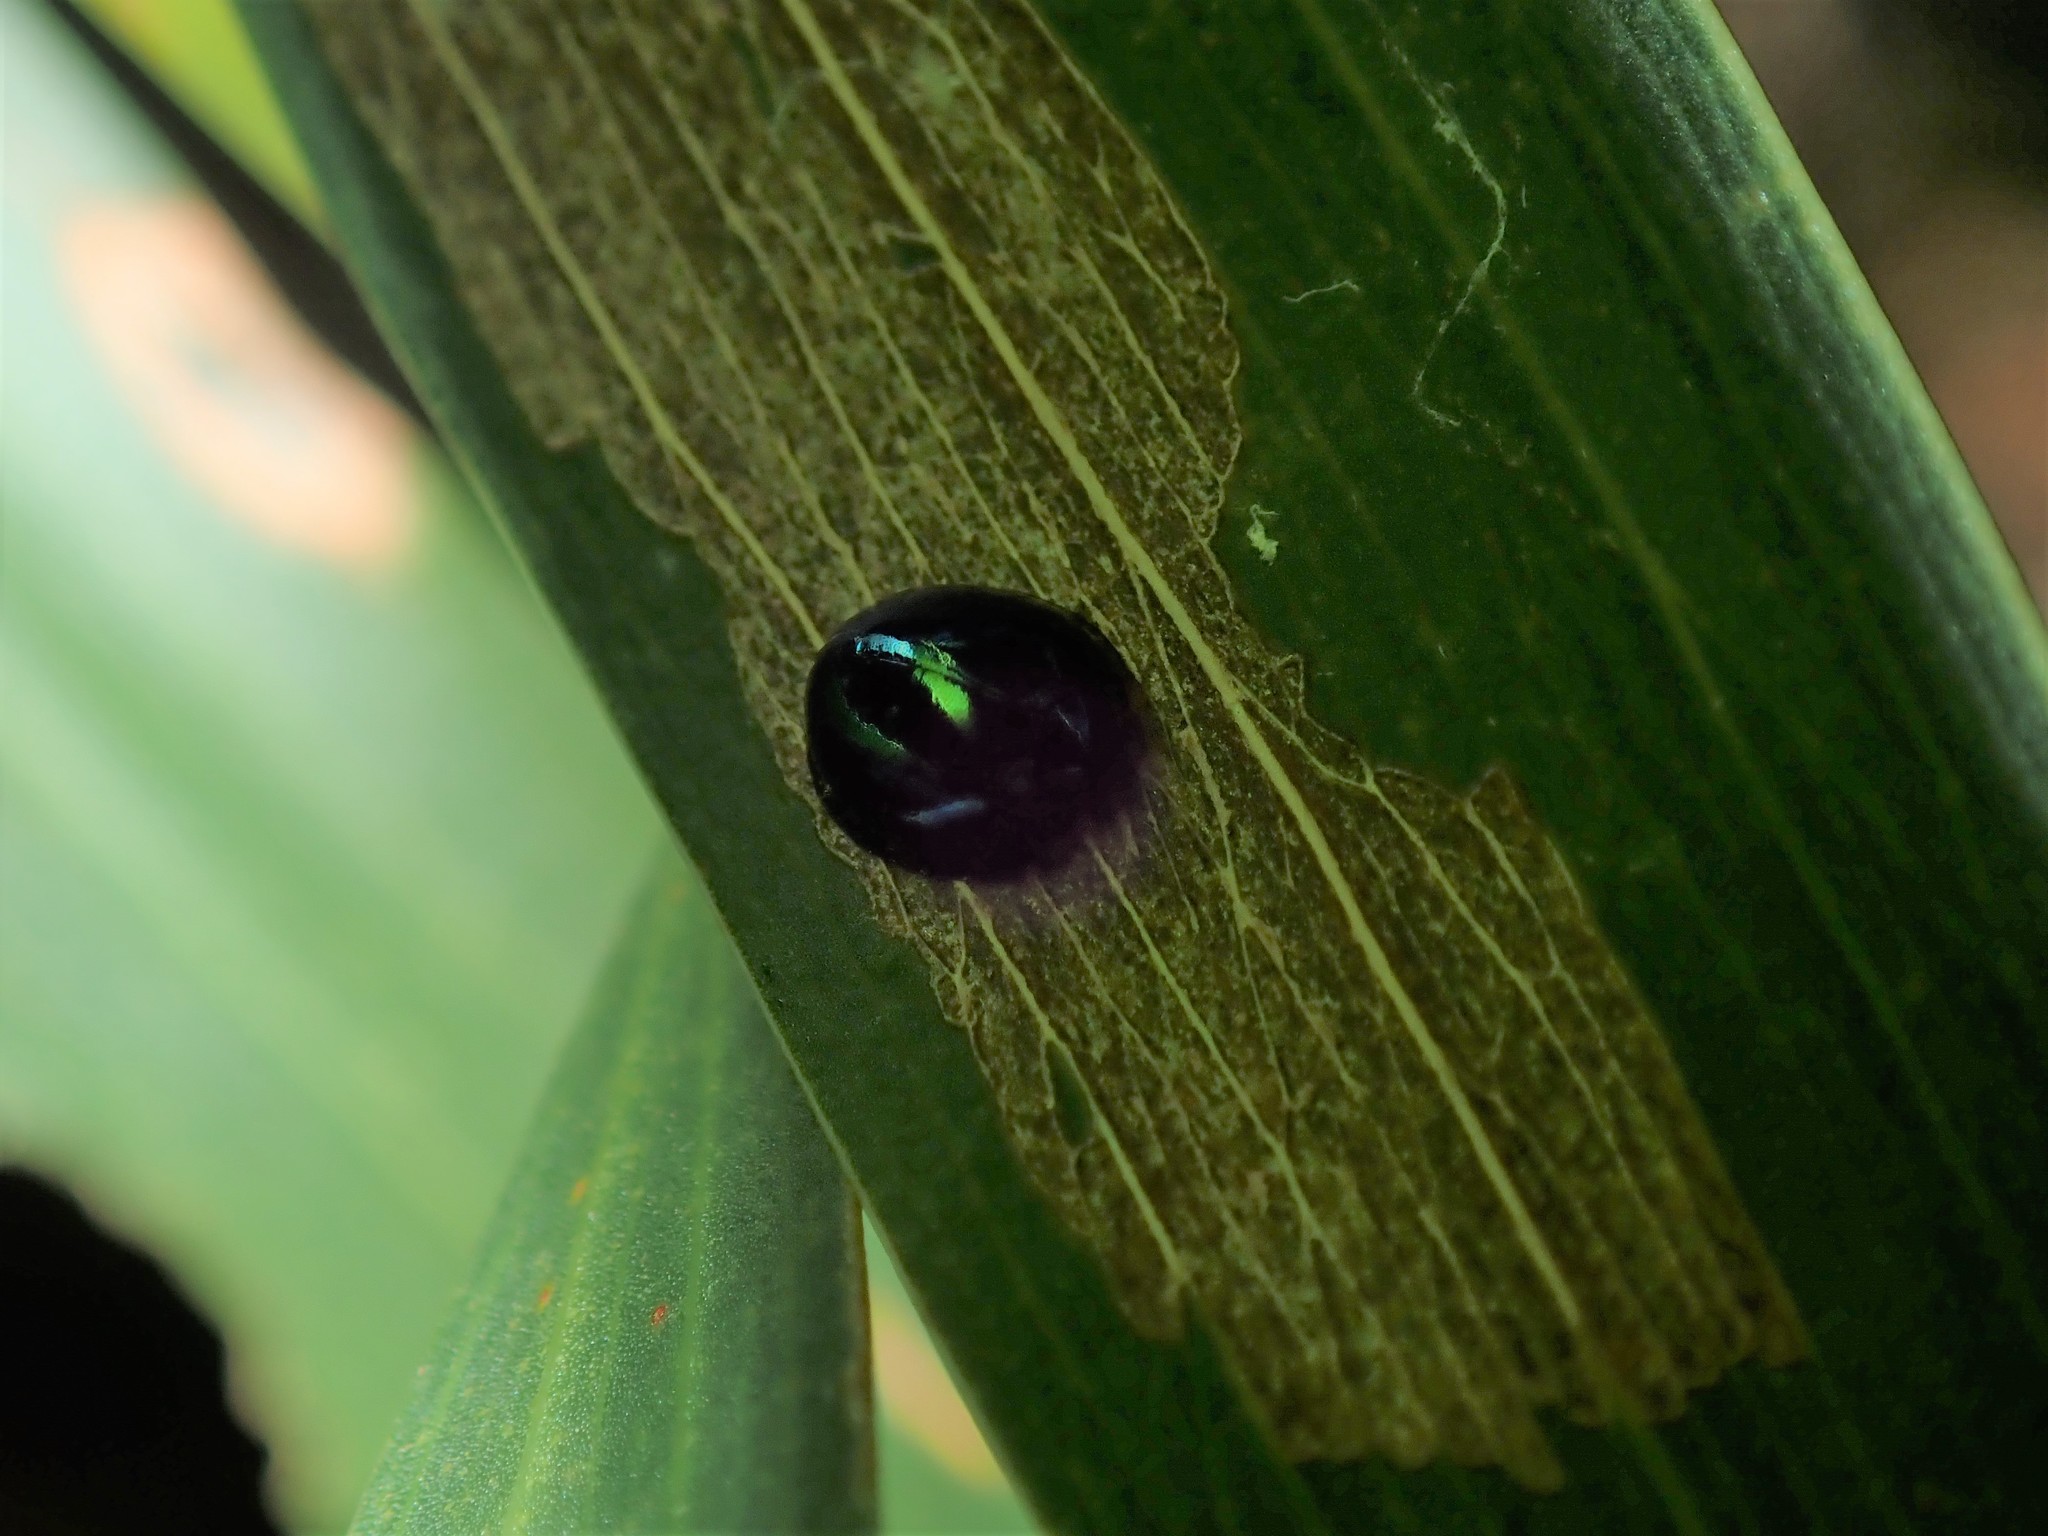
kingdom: Animalia
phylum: Arthropoda
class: Insecta
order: Coleoptera
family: Coccinellidae
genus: Halmus
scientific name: Halmus chalybeus
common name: Steel blue ladybird beetle
